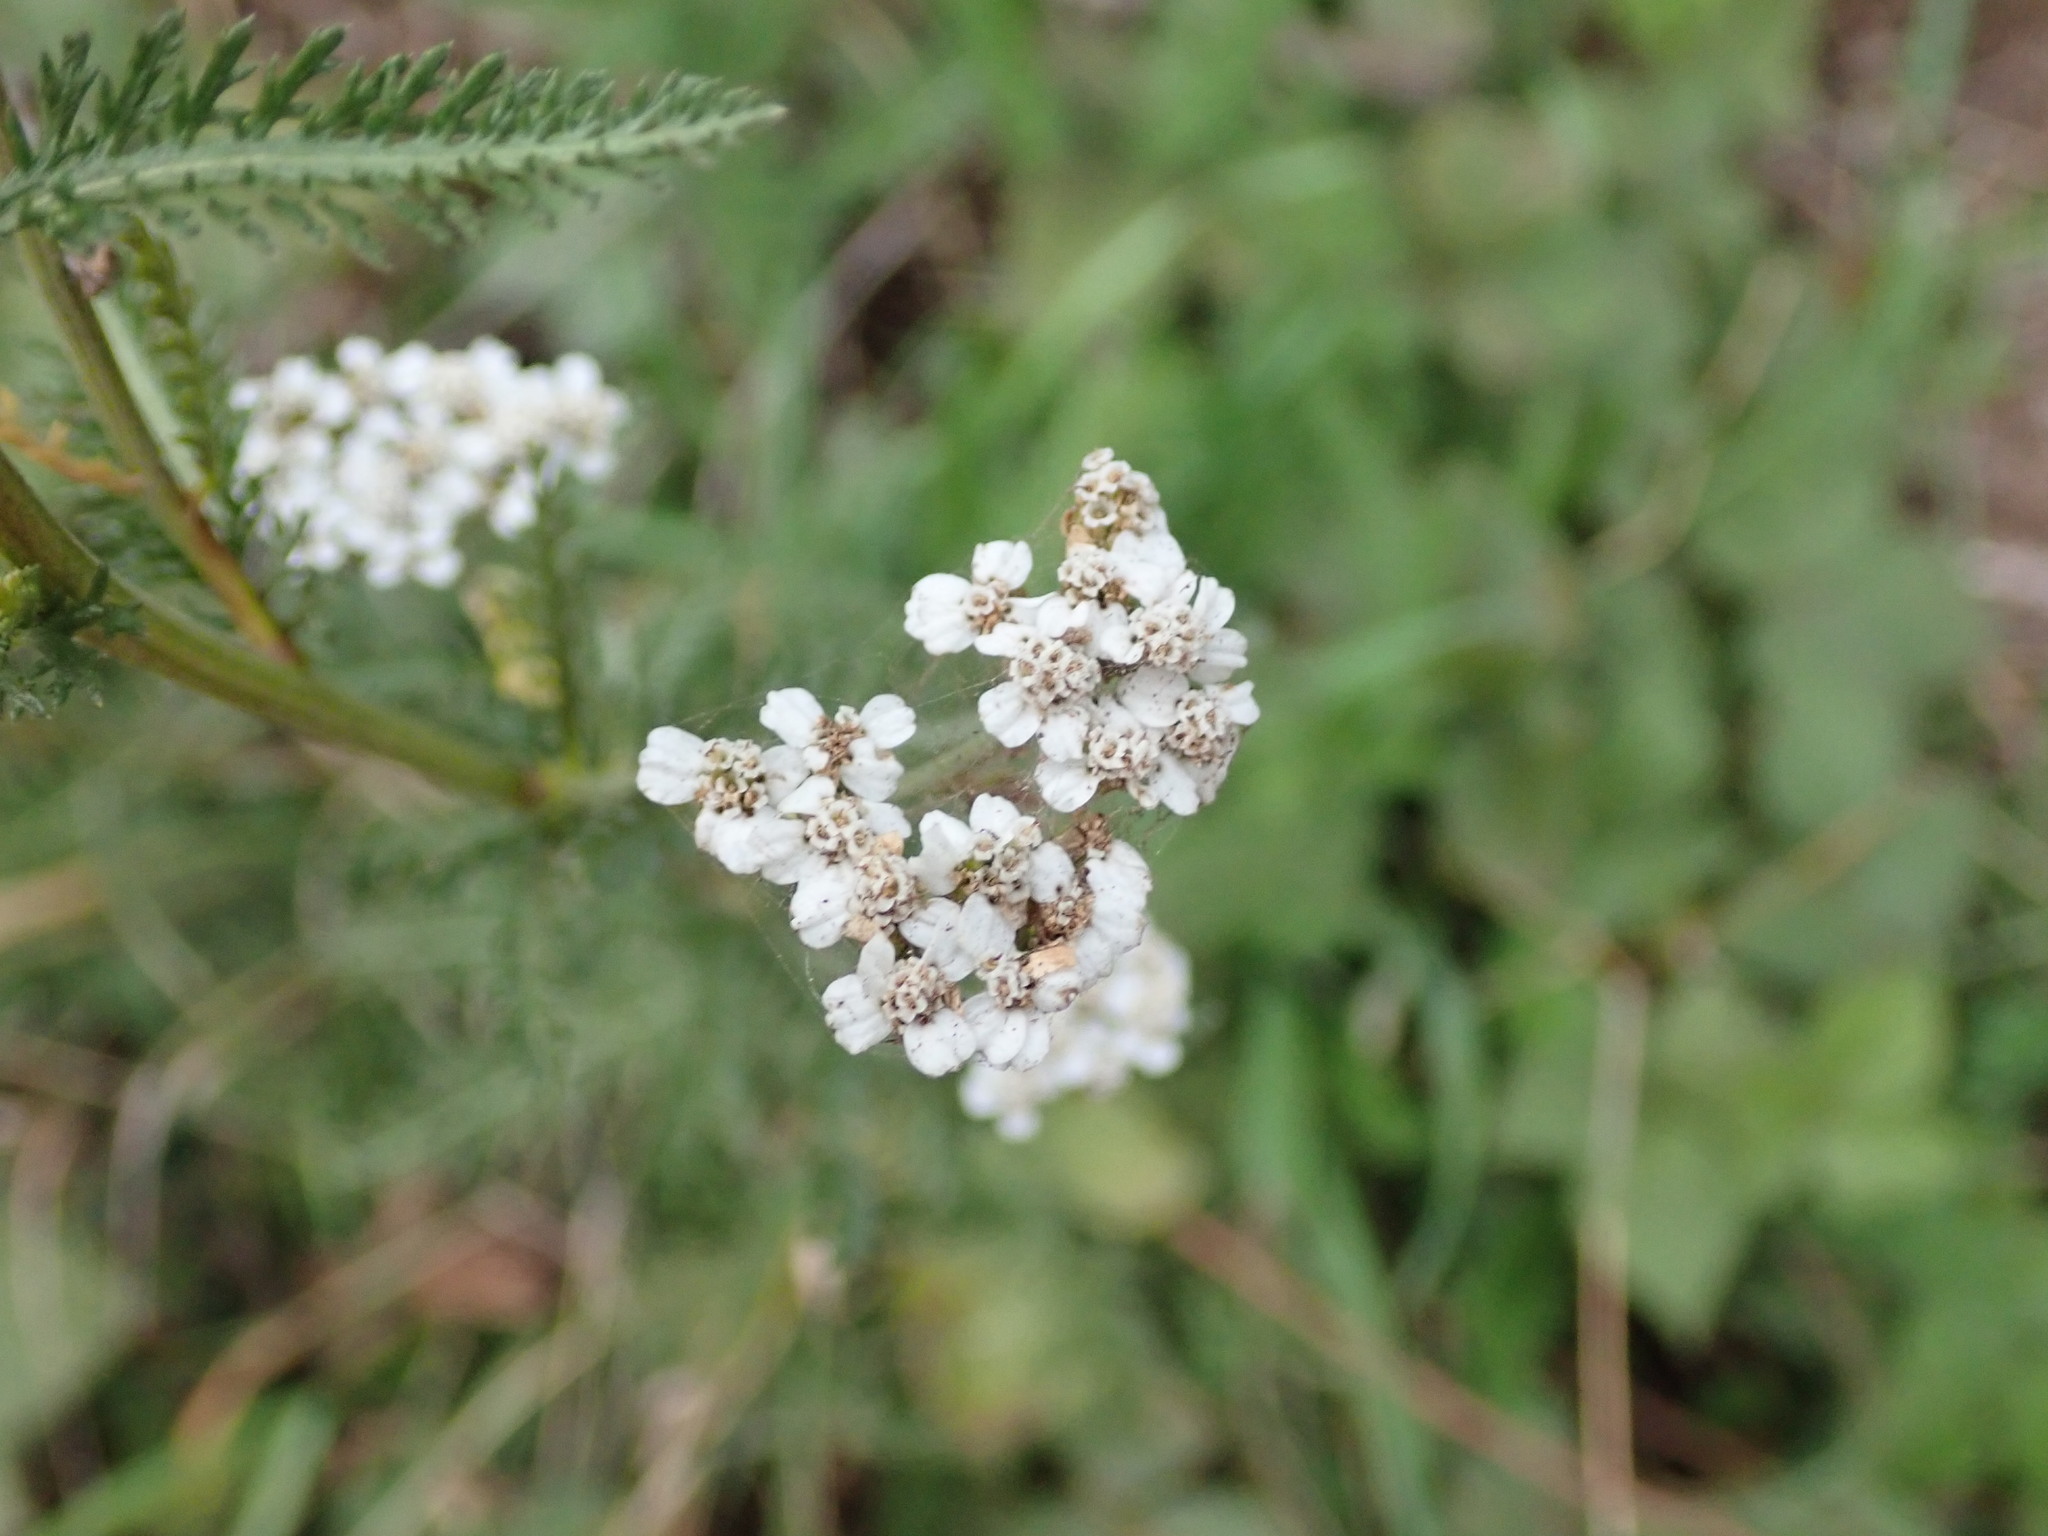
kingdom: Plantae
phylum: Tracheophyta
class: Magnoliopsida
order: Asterales
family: Asteraceae
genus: Achillea
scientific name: Achillea millefolium
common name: Yarrow
